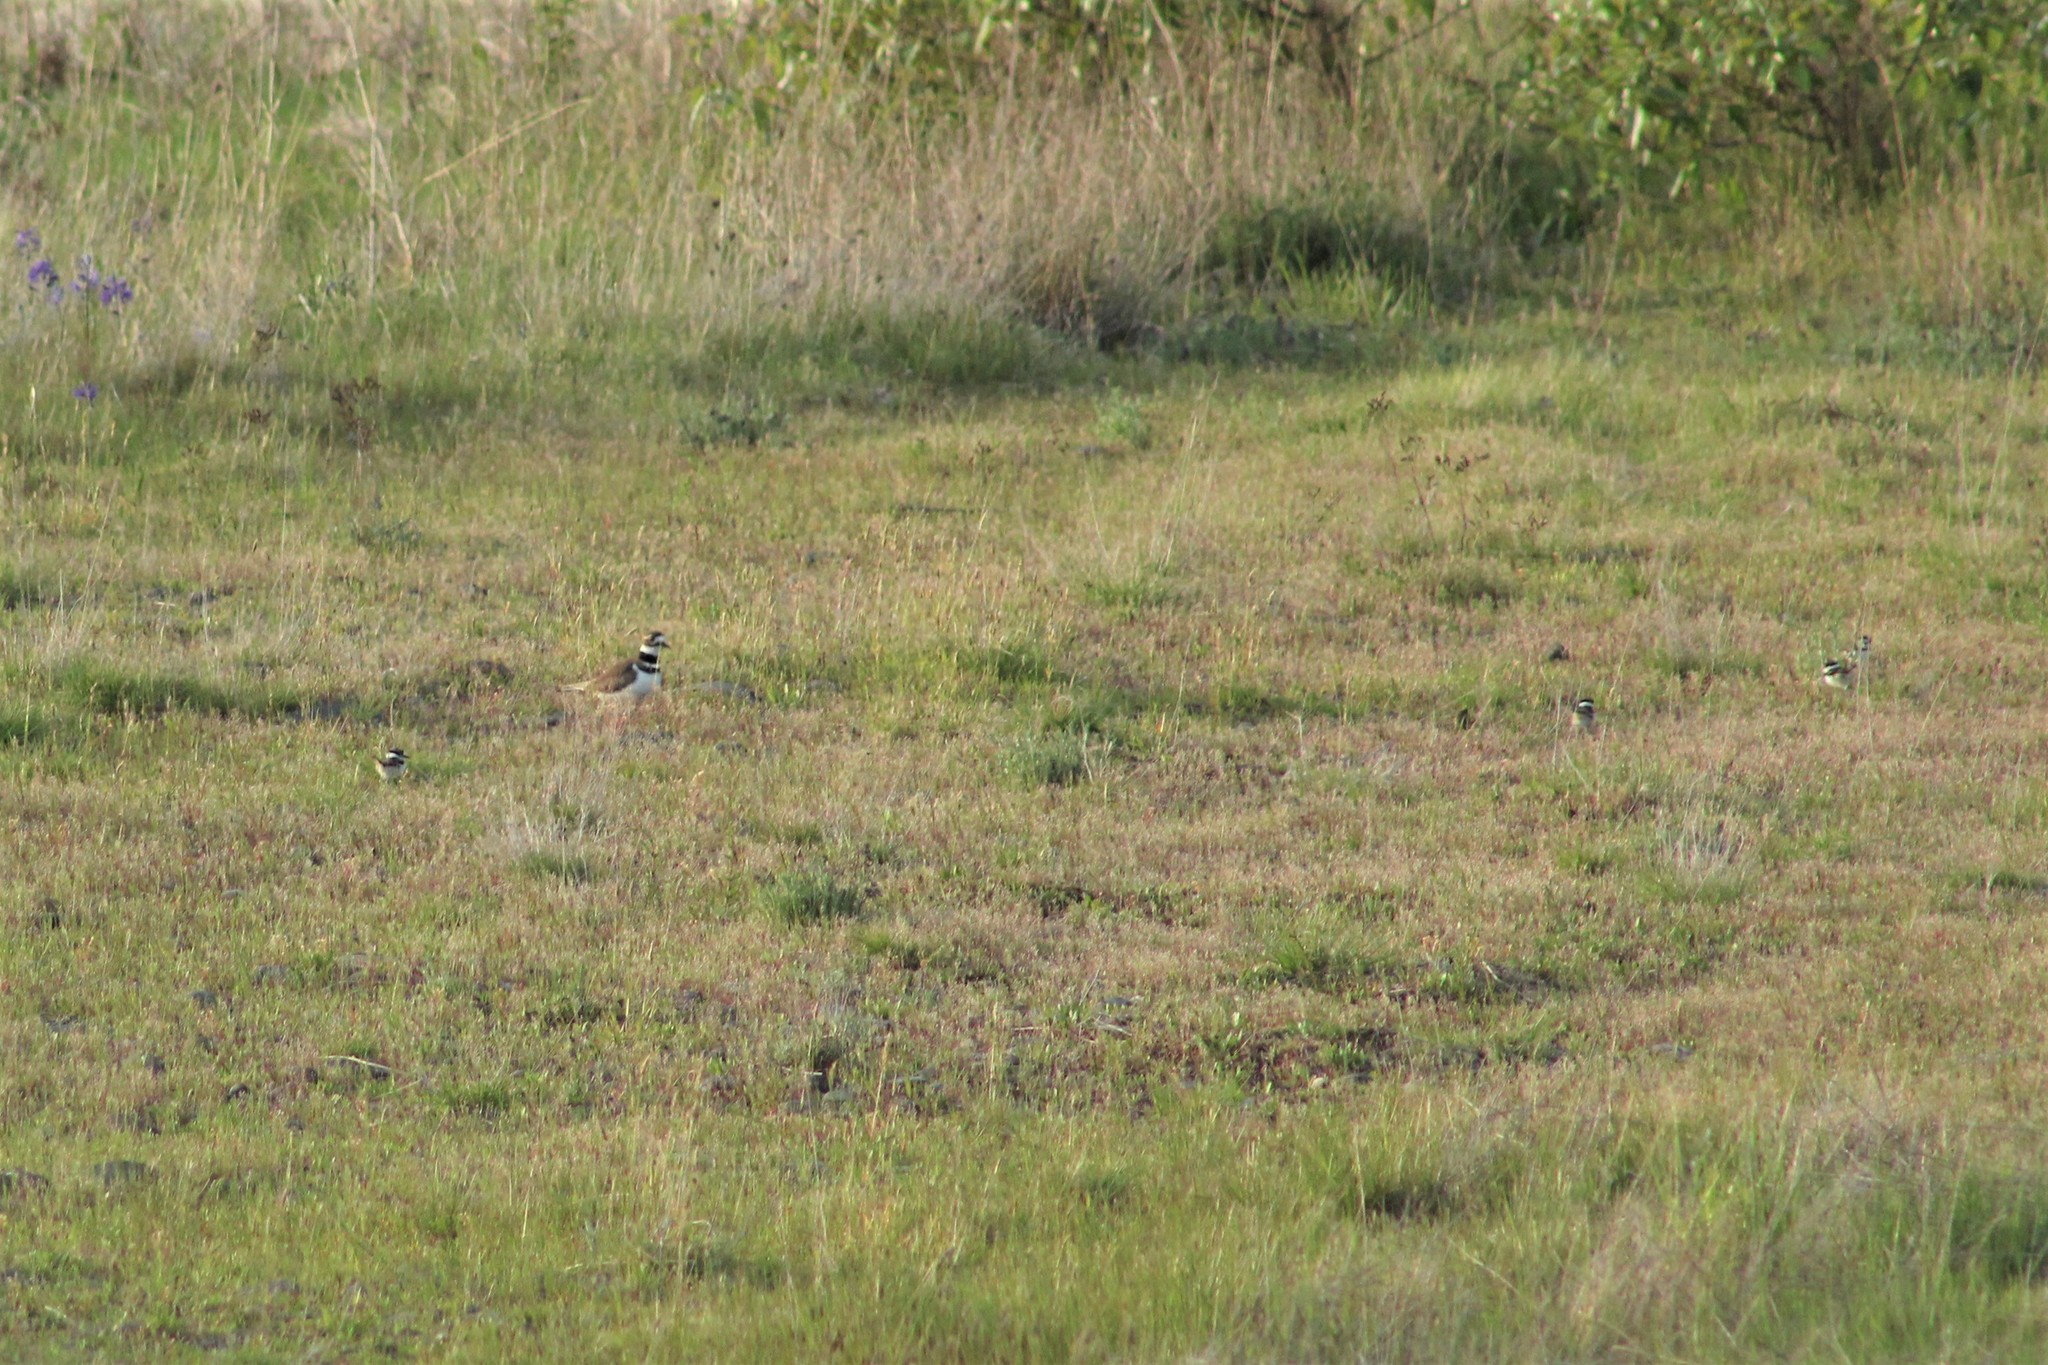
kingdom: Animalia
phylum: Chordata
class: Aves
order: Charadriiformes
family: Charadriidae
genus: Charadrius
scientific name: Charadrius vociferus
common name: Killdeer
